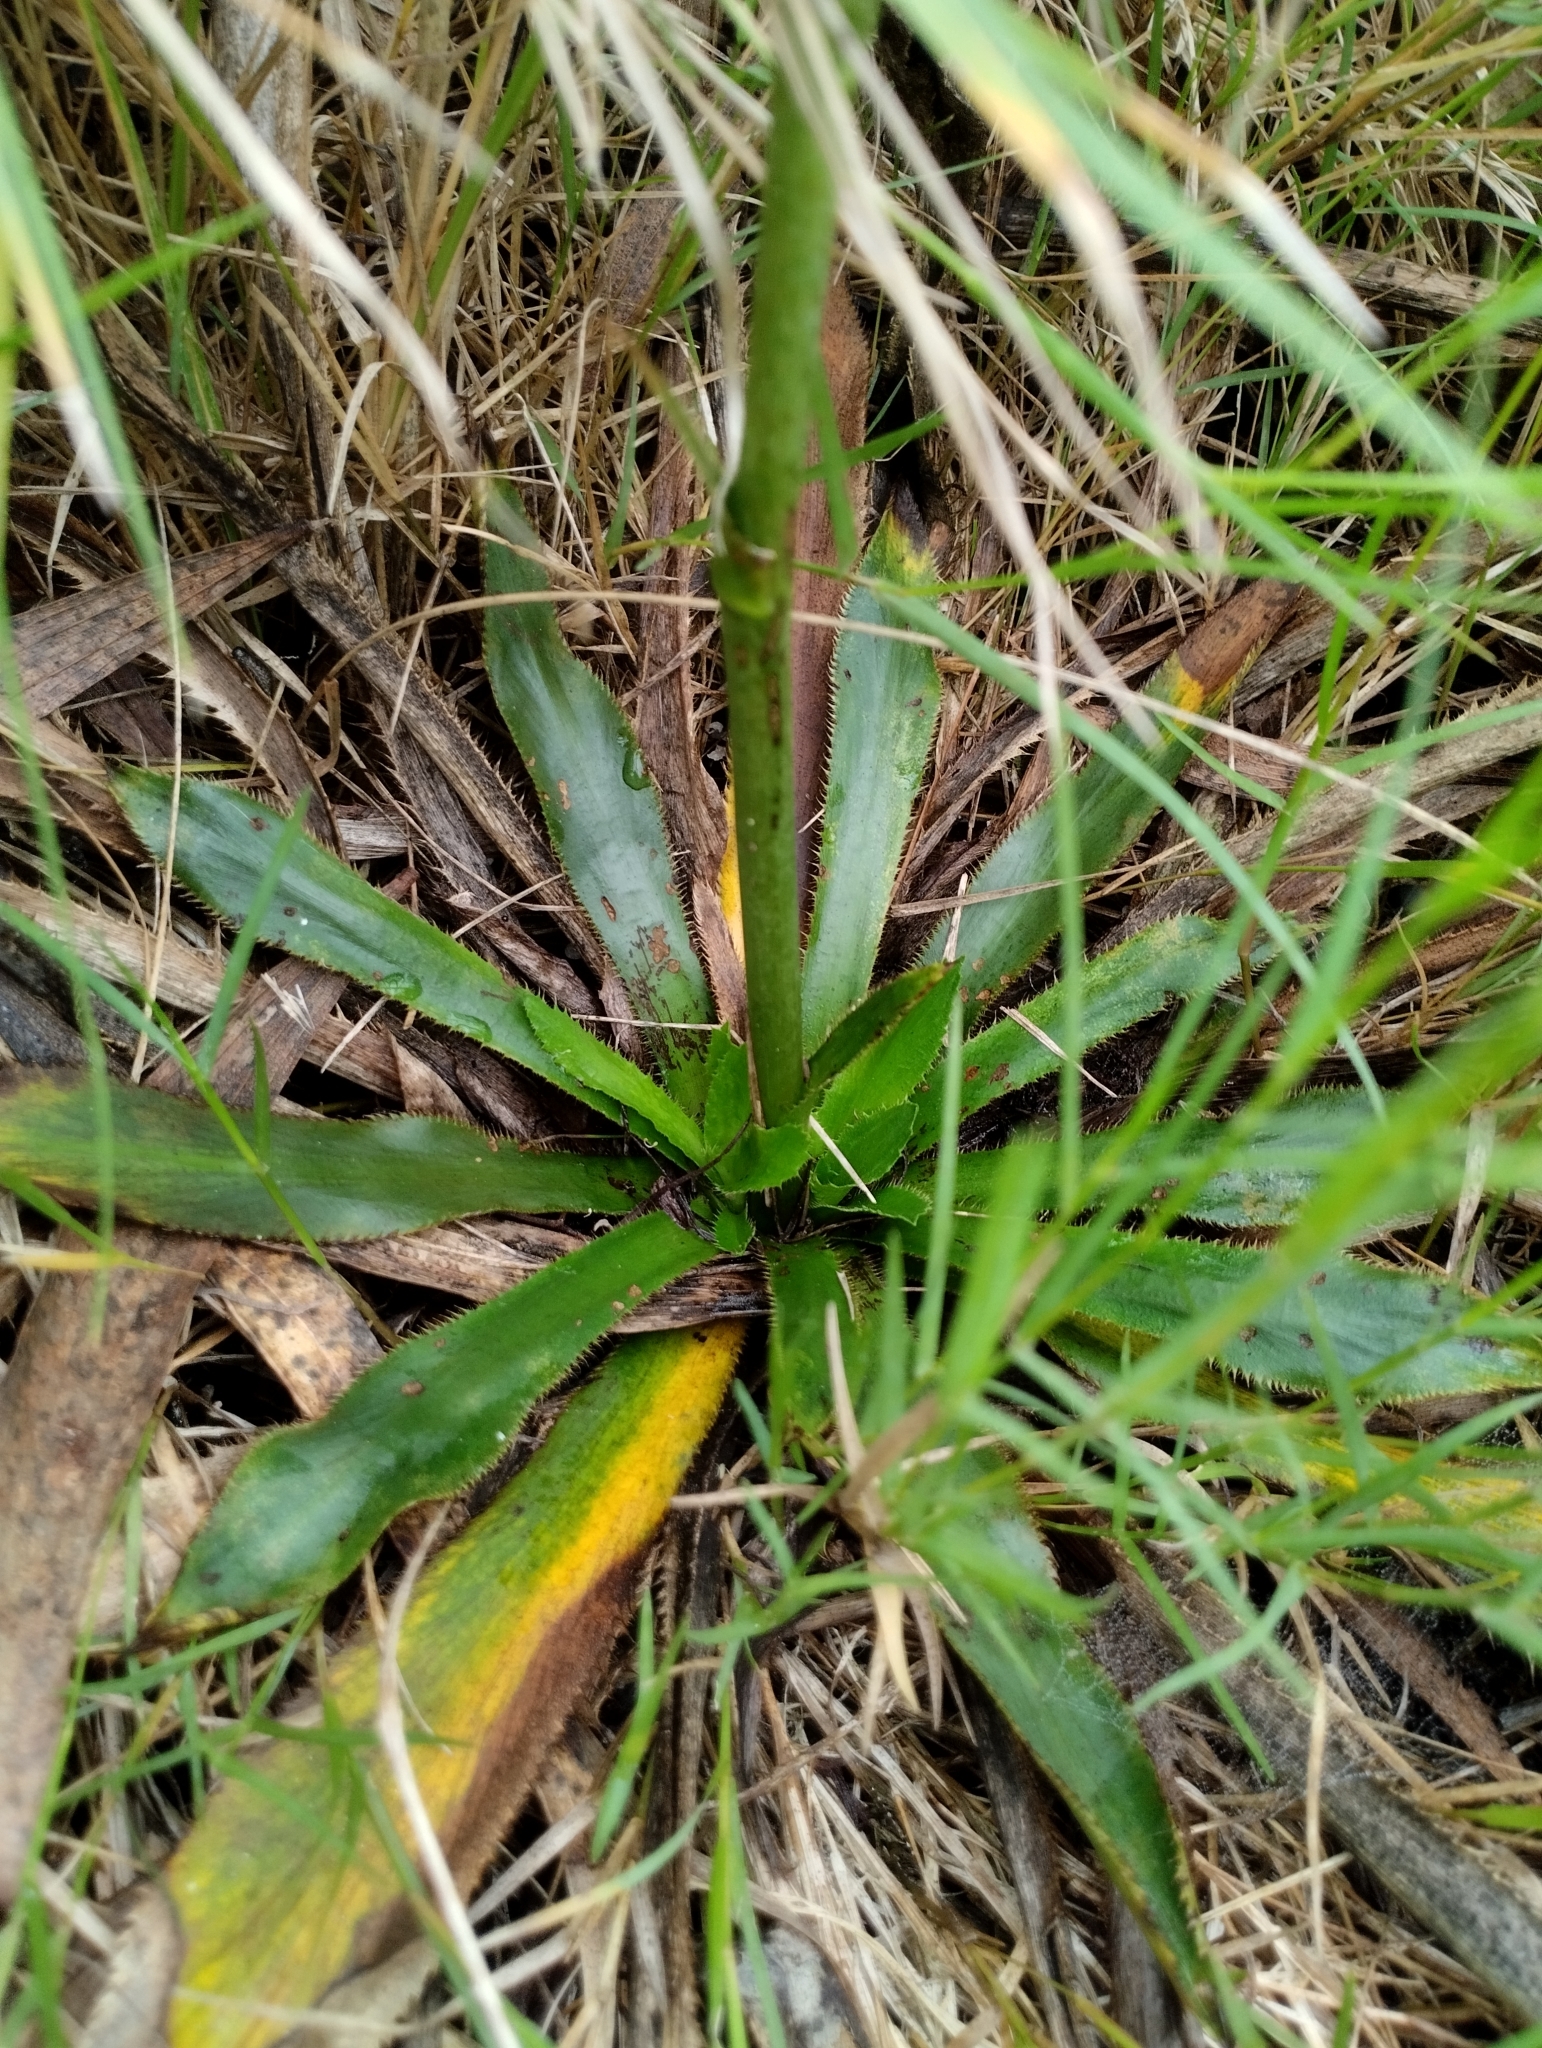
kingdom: Plantae
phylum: Tracheophyta
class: Magnoliopsida
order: Apiales
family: Apiaceae
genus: Eryngium
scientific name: Eryngium elegans
